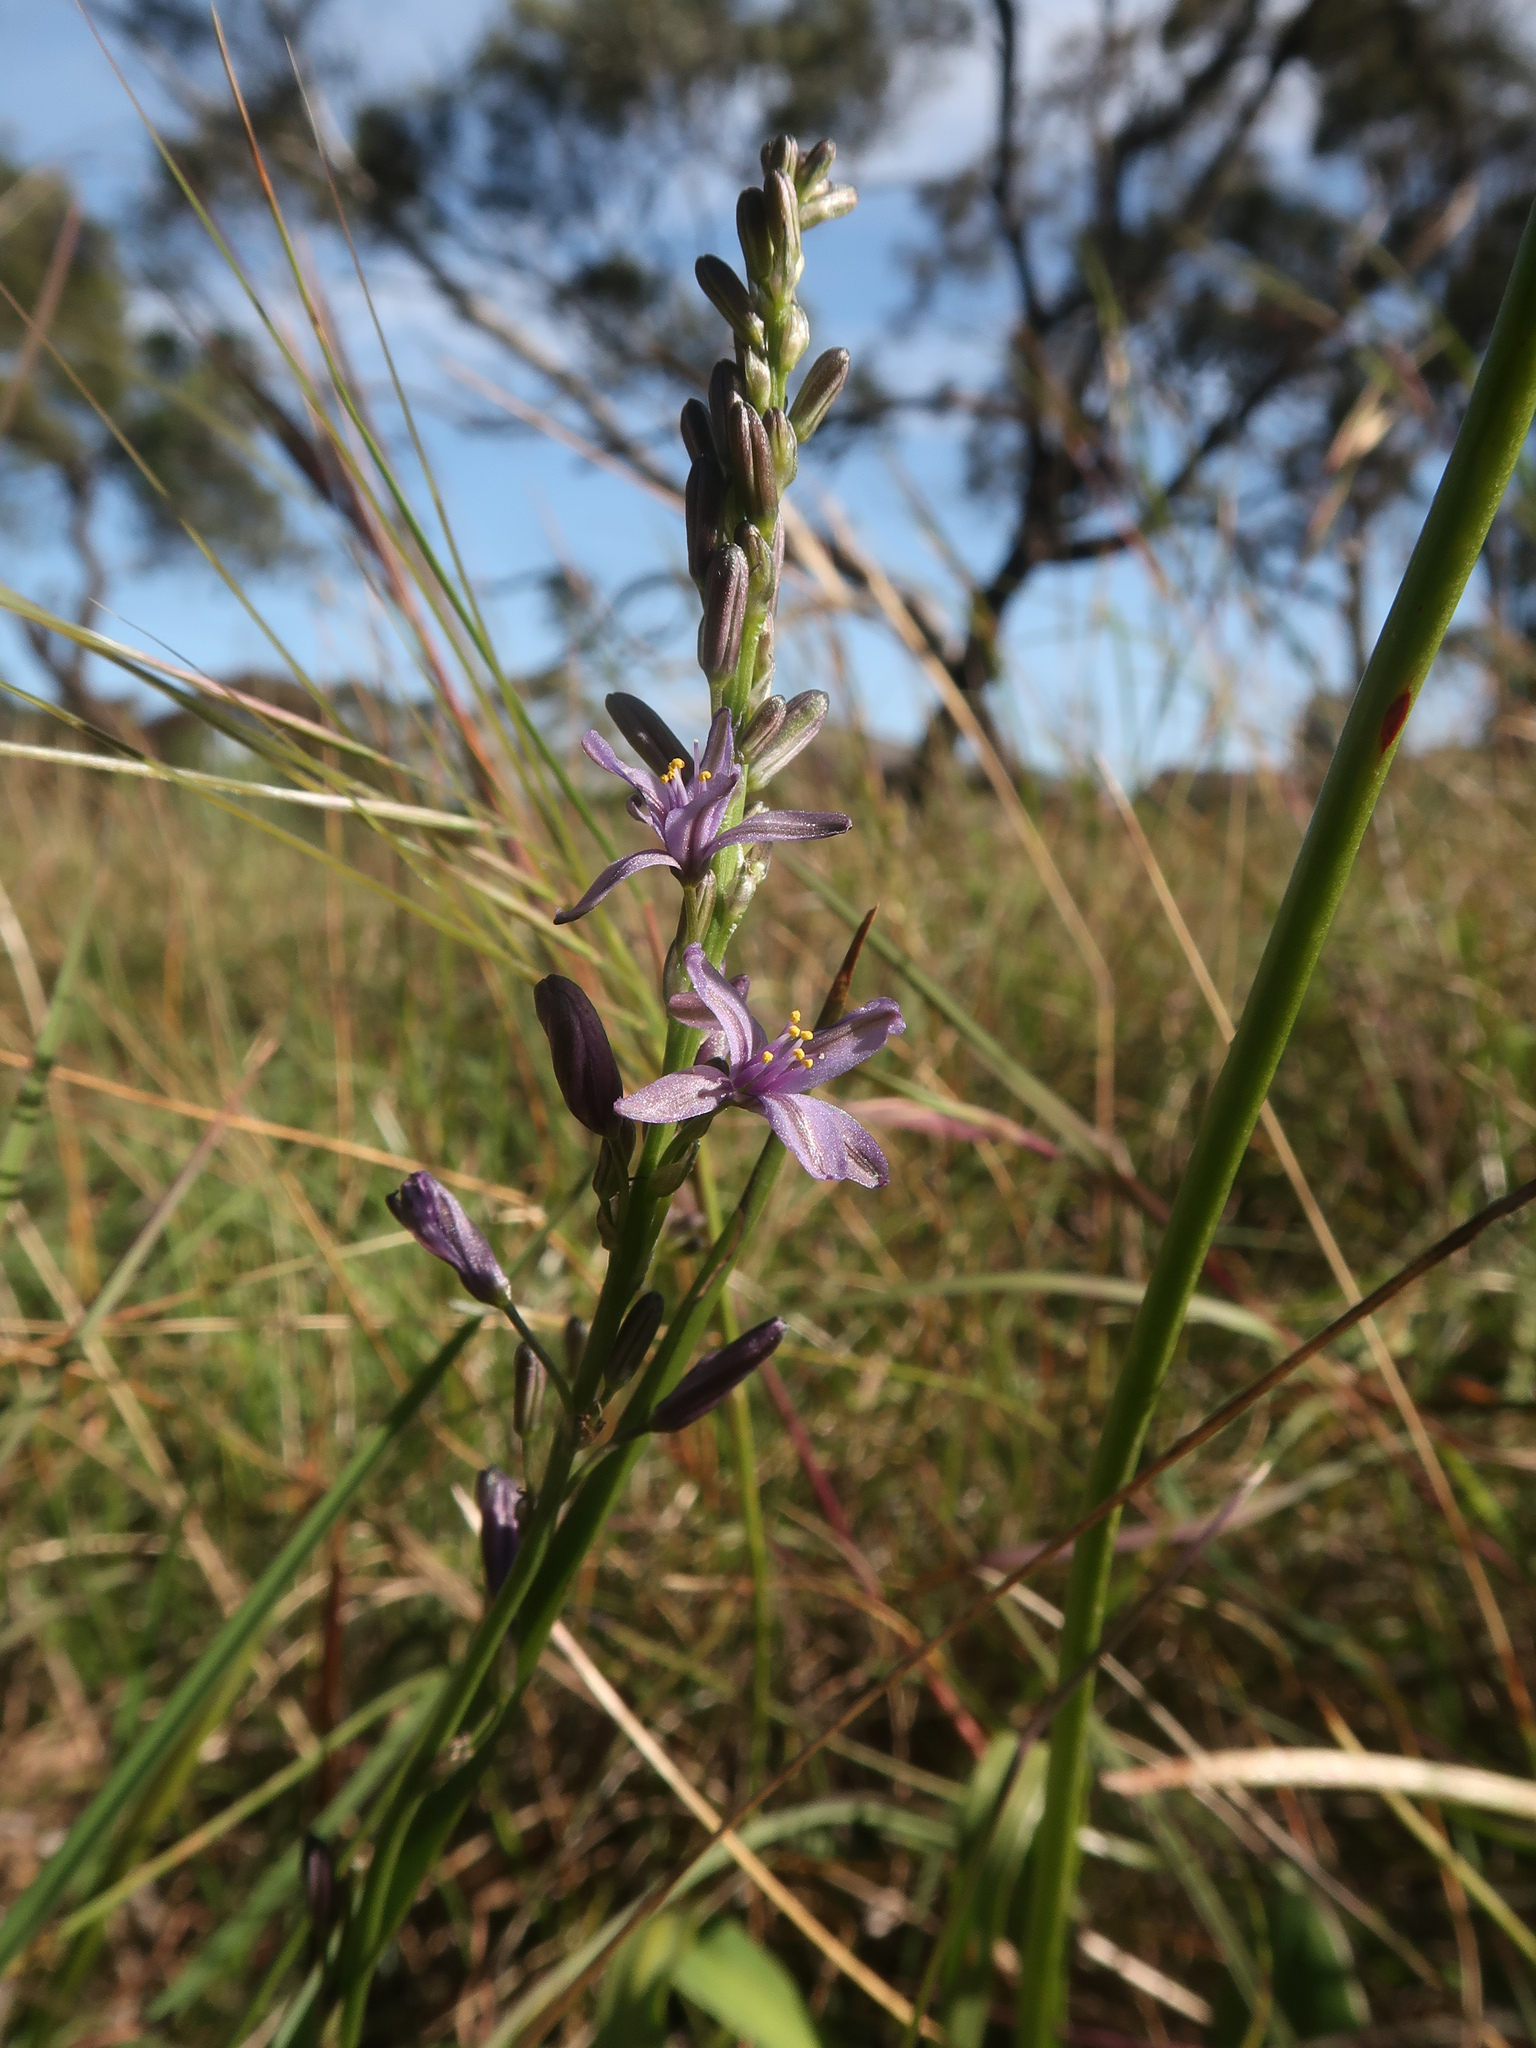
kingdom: Plantae
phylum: Tracheophyta
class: Liliopsida
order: Asparagales
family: Asphodelaceae
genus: Caesia
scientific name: Caesia calliantha
